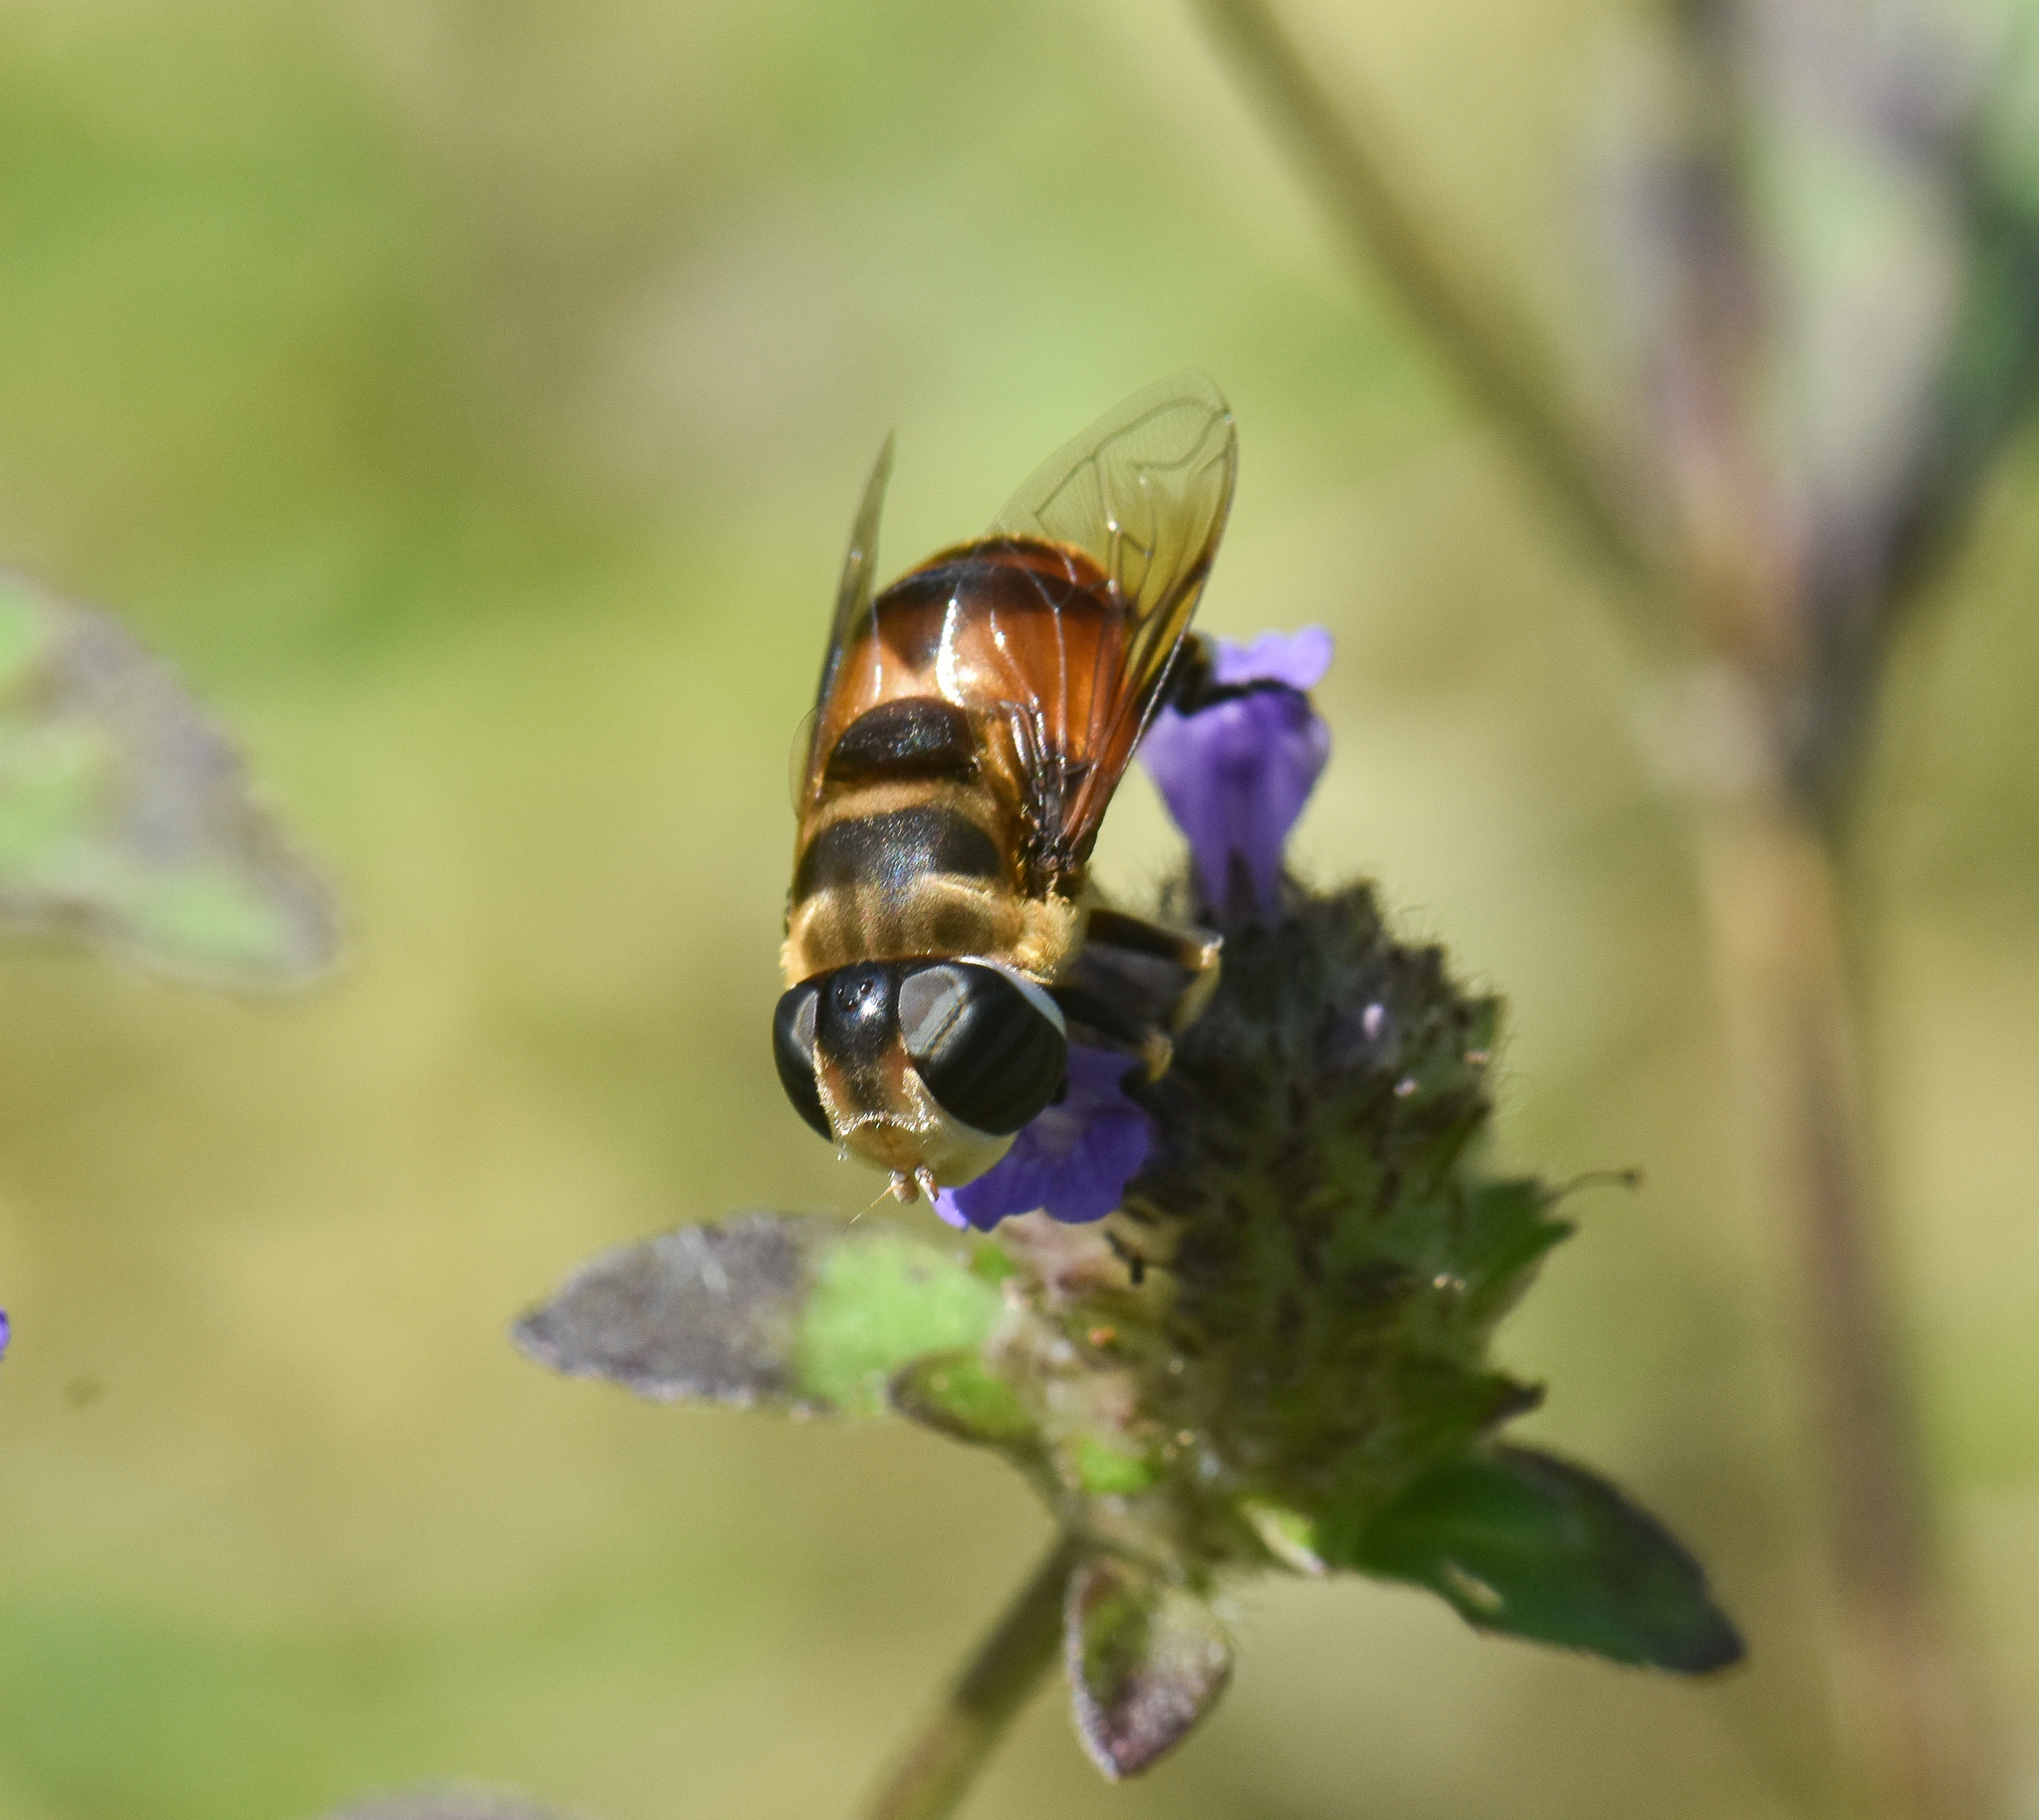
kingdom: Animalia
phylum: Arthropoda
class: Insecta
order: Diptera
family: Syrphidae
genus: Phytomia
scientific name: Phytomia errans
